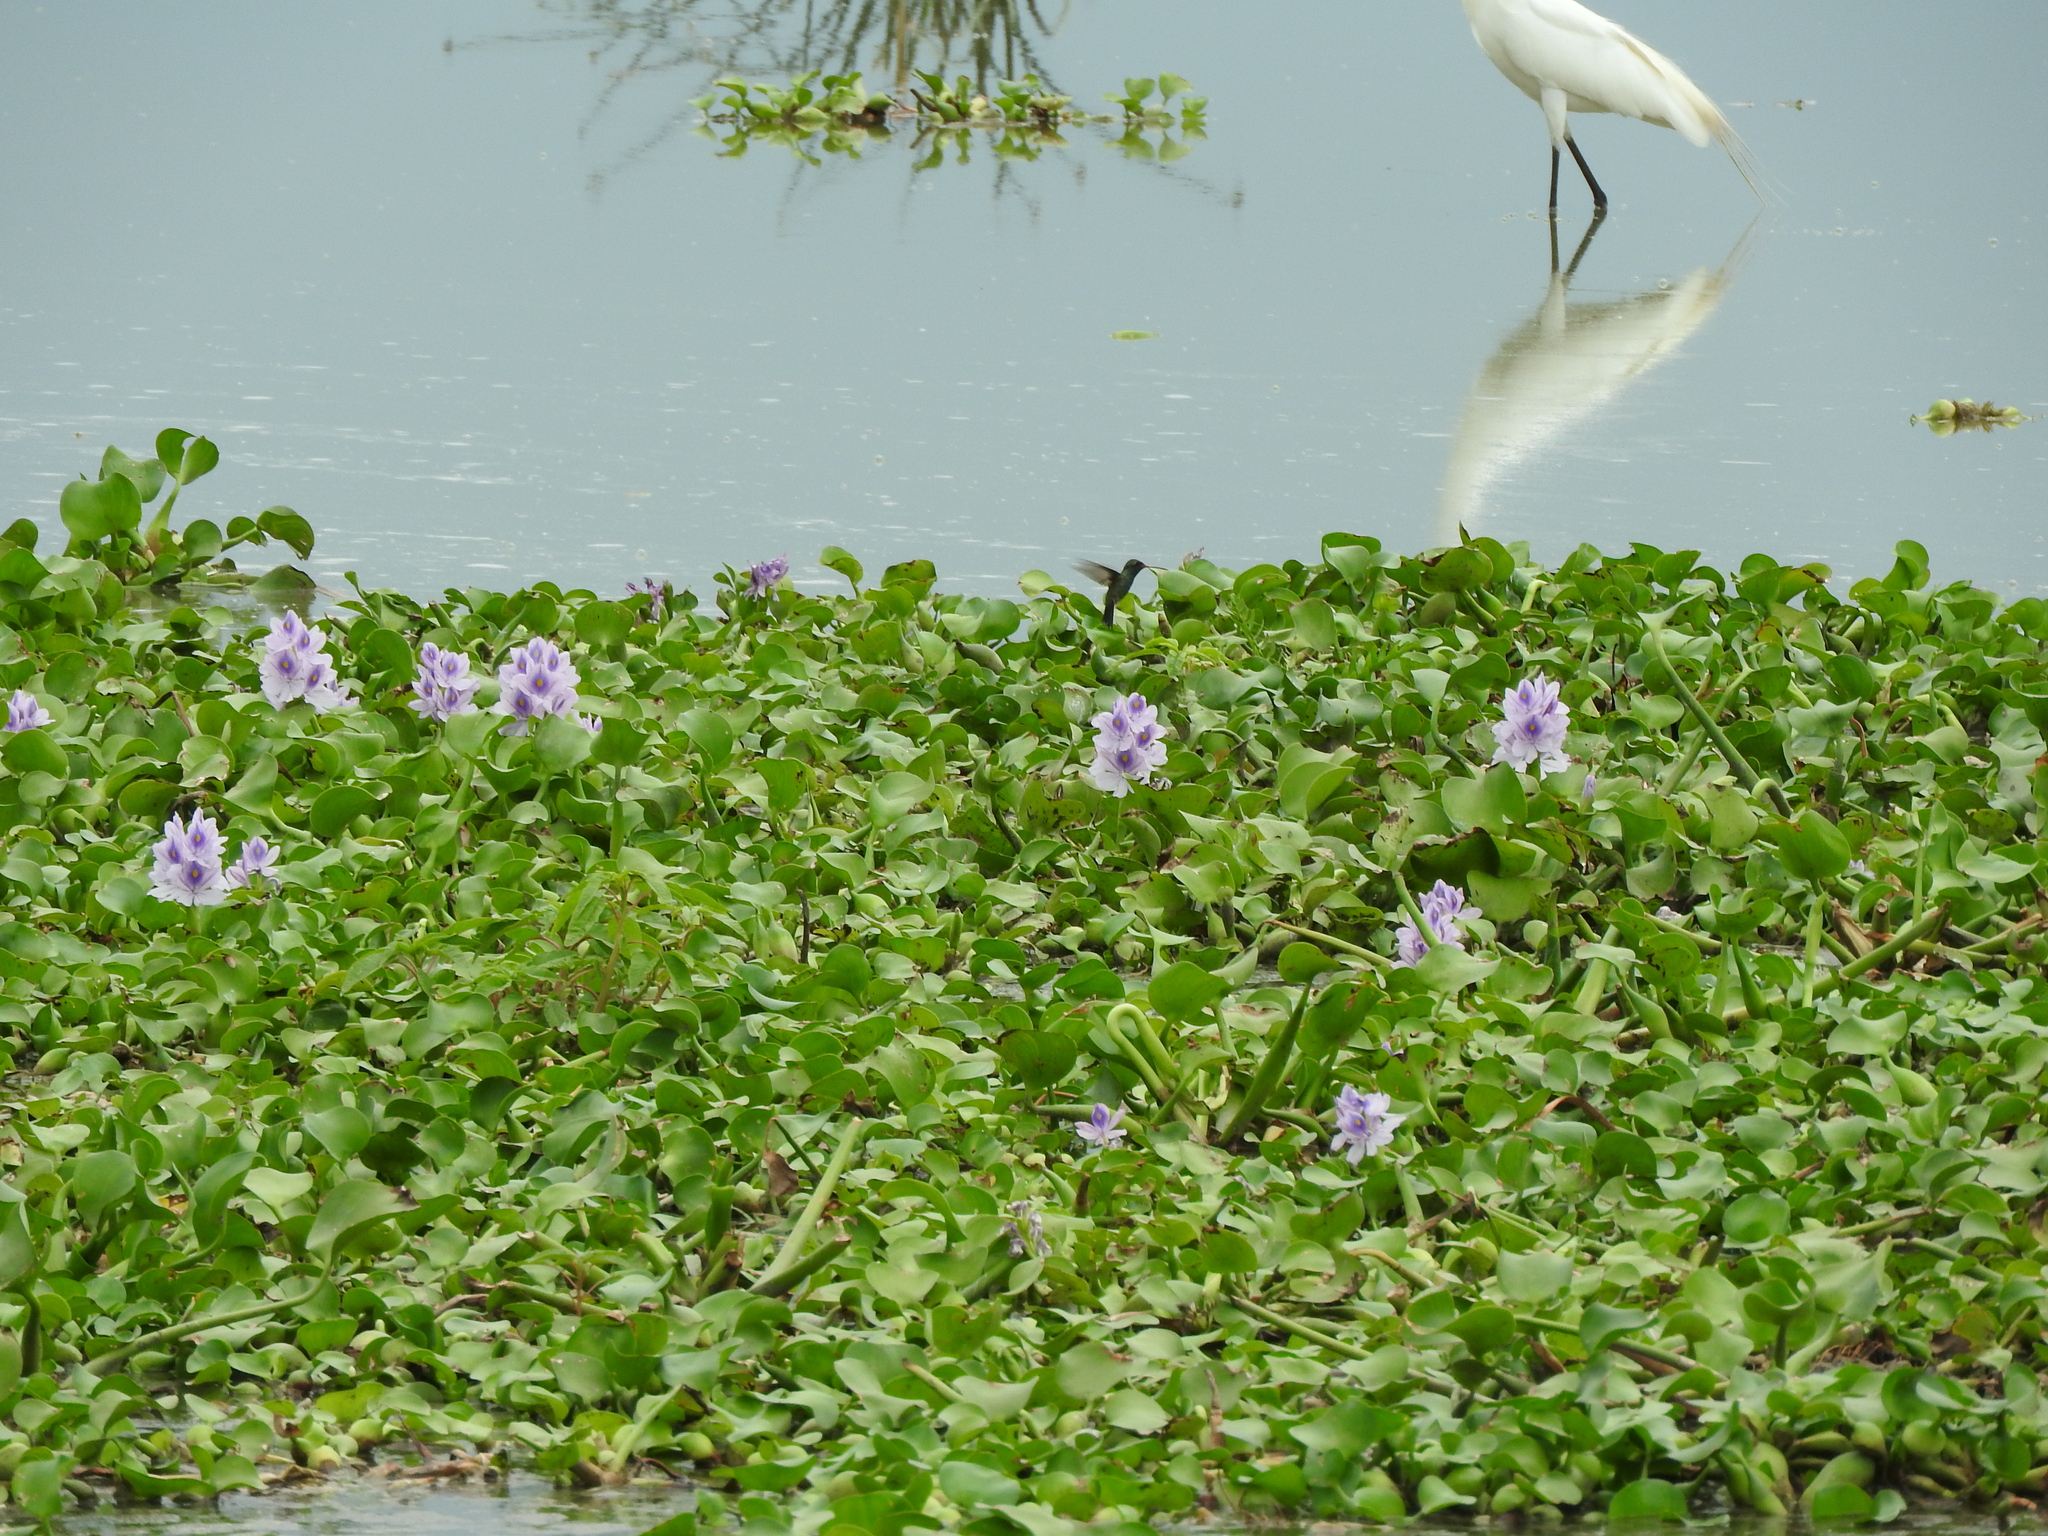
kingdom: Plantae
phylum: Tracheophyta
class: Liliopsida
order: Commelinales
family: Pontederiaceae
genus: Pontederia
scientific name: Pontederia crassipes
